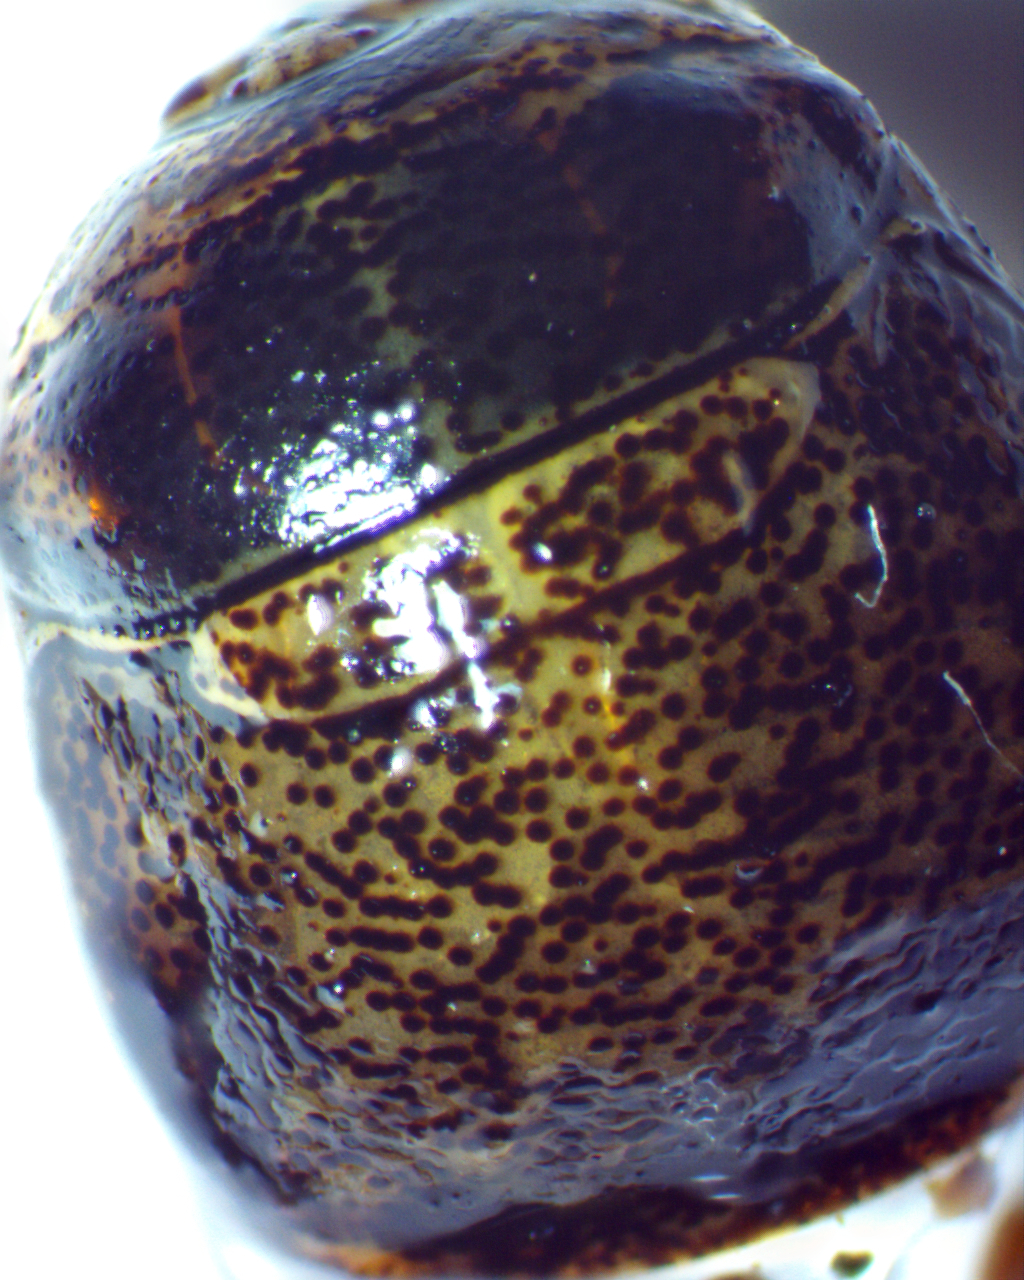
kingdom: Animalia
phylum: Arthropoda
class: Insecta
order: Hemiptera
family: Plataspidae
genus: Megacopta
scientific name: Megacopta cribraria
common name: Bean plataspid
